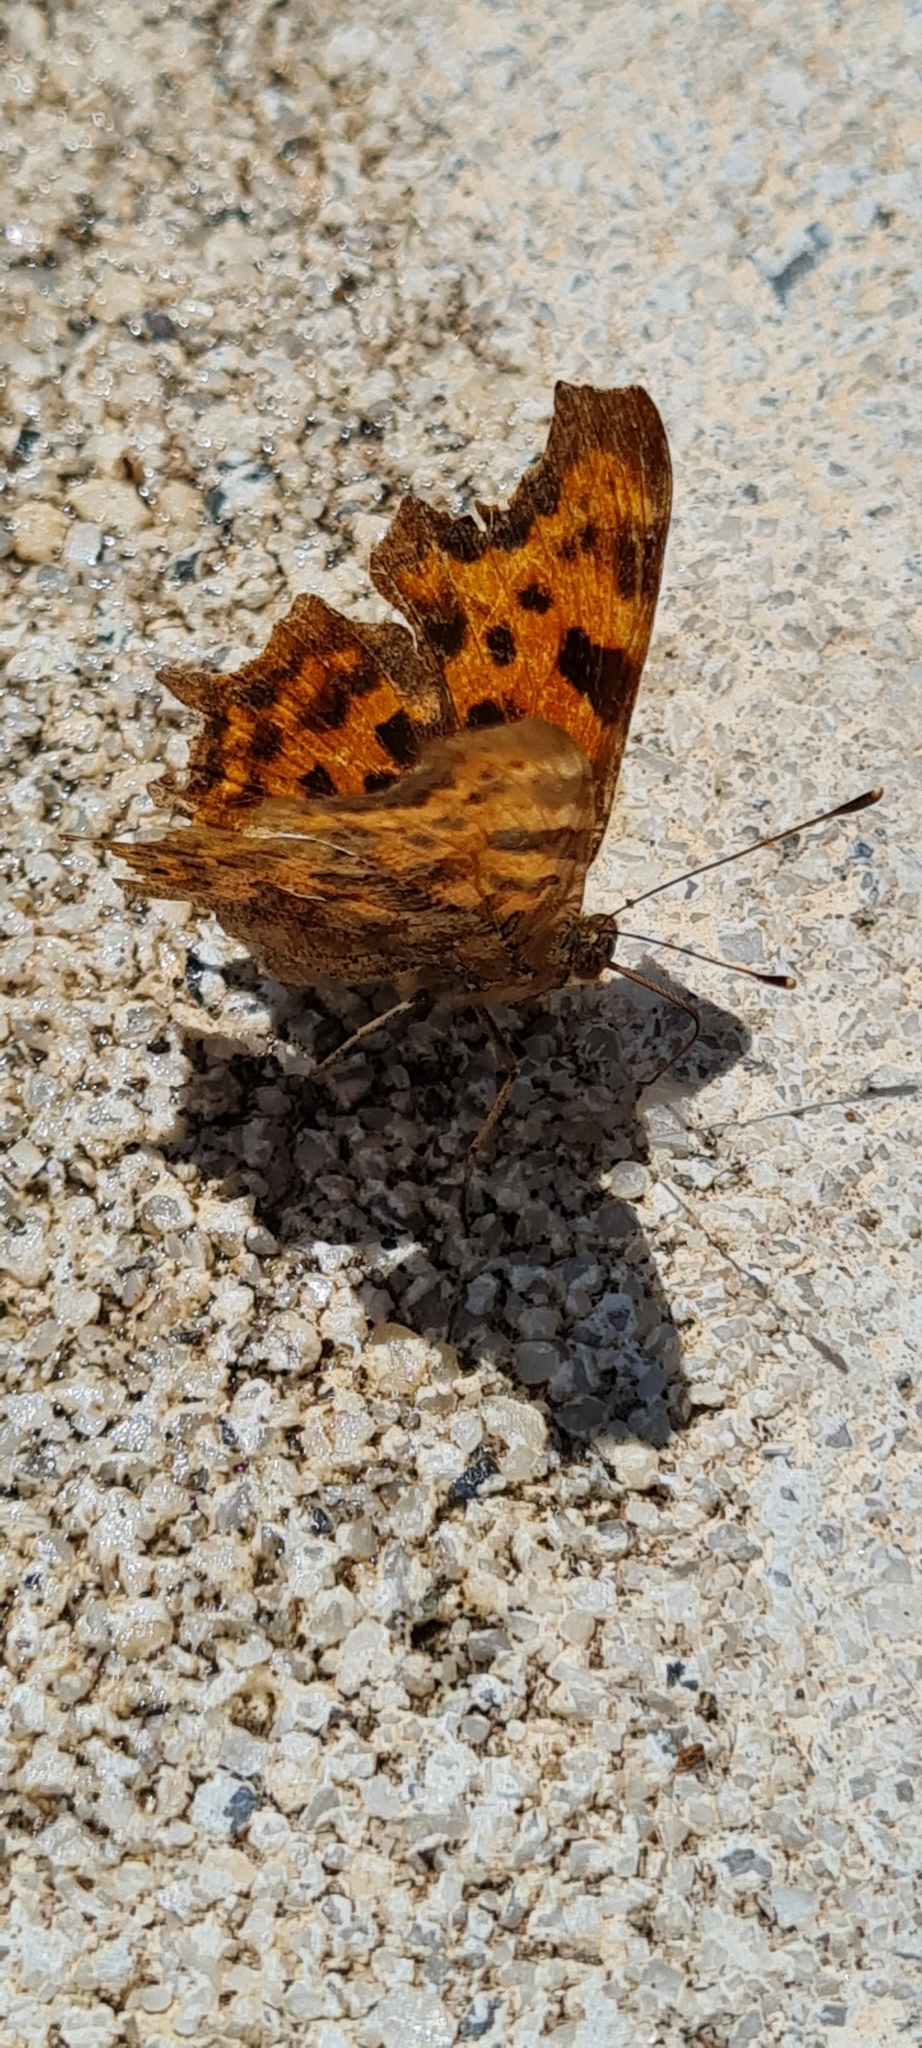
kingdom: Animalia
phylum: Arthropoda
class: Insecta
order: Lepidoptera
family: Nymphalidae
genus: Polygonia
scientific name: Polygonia c-album
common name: Comma
